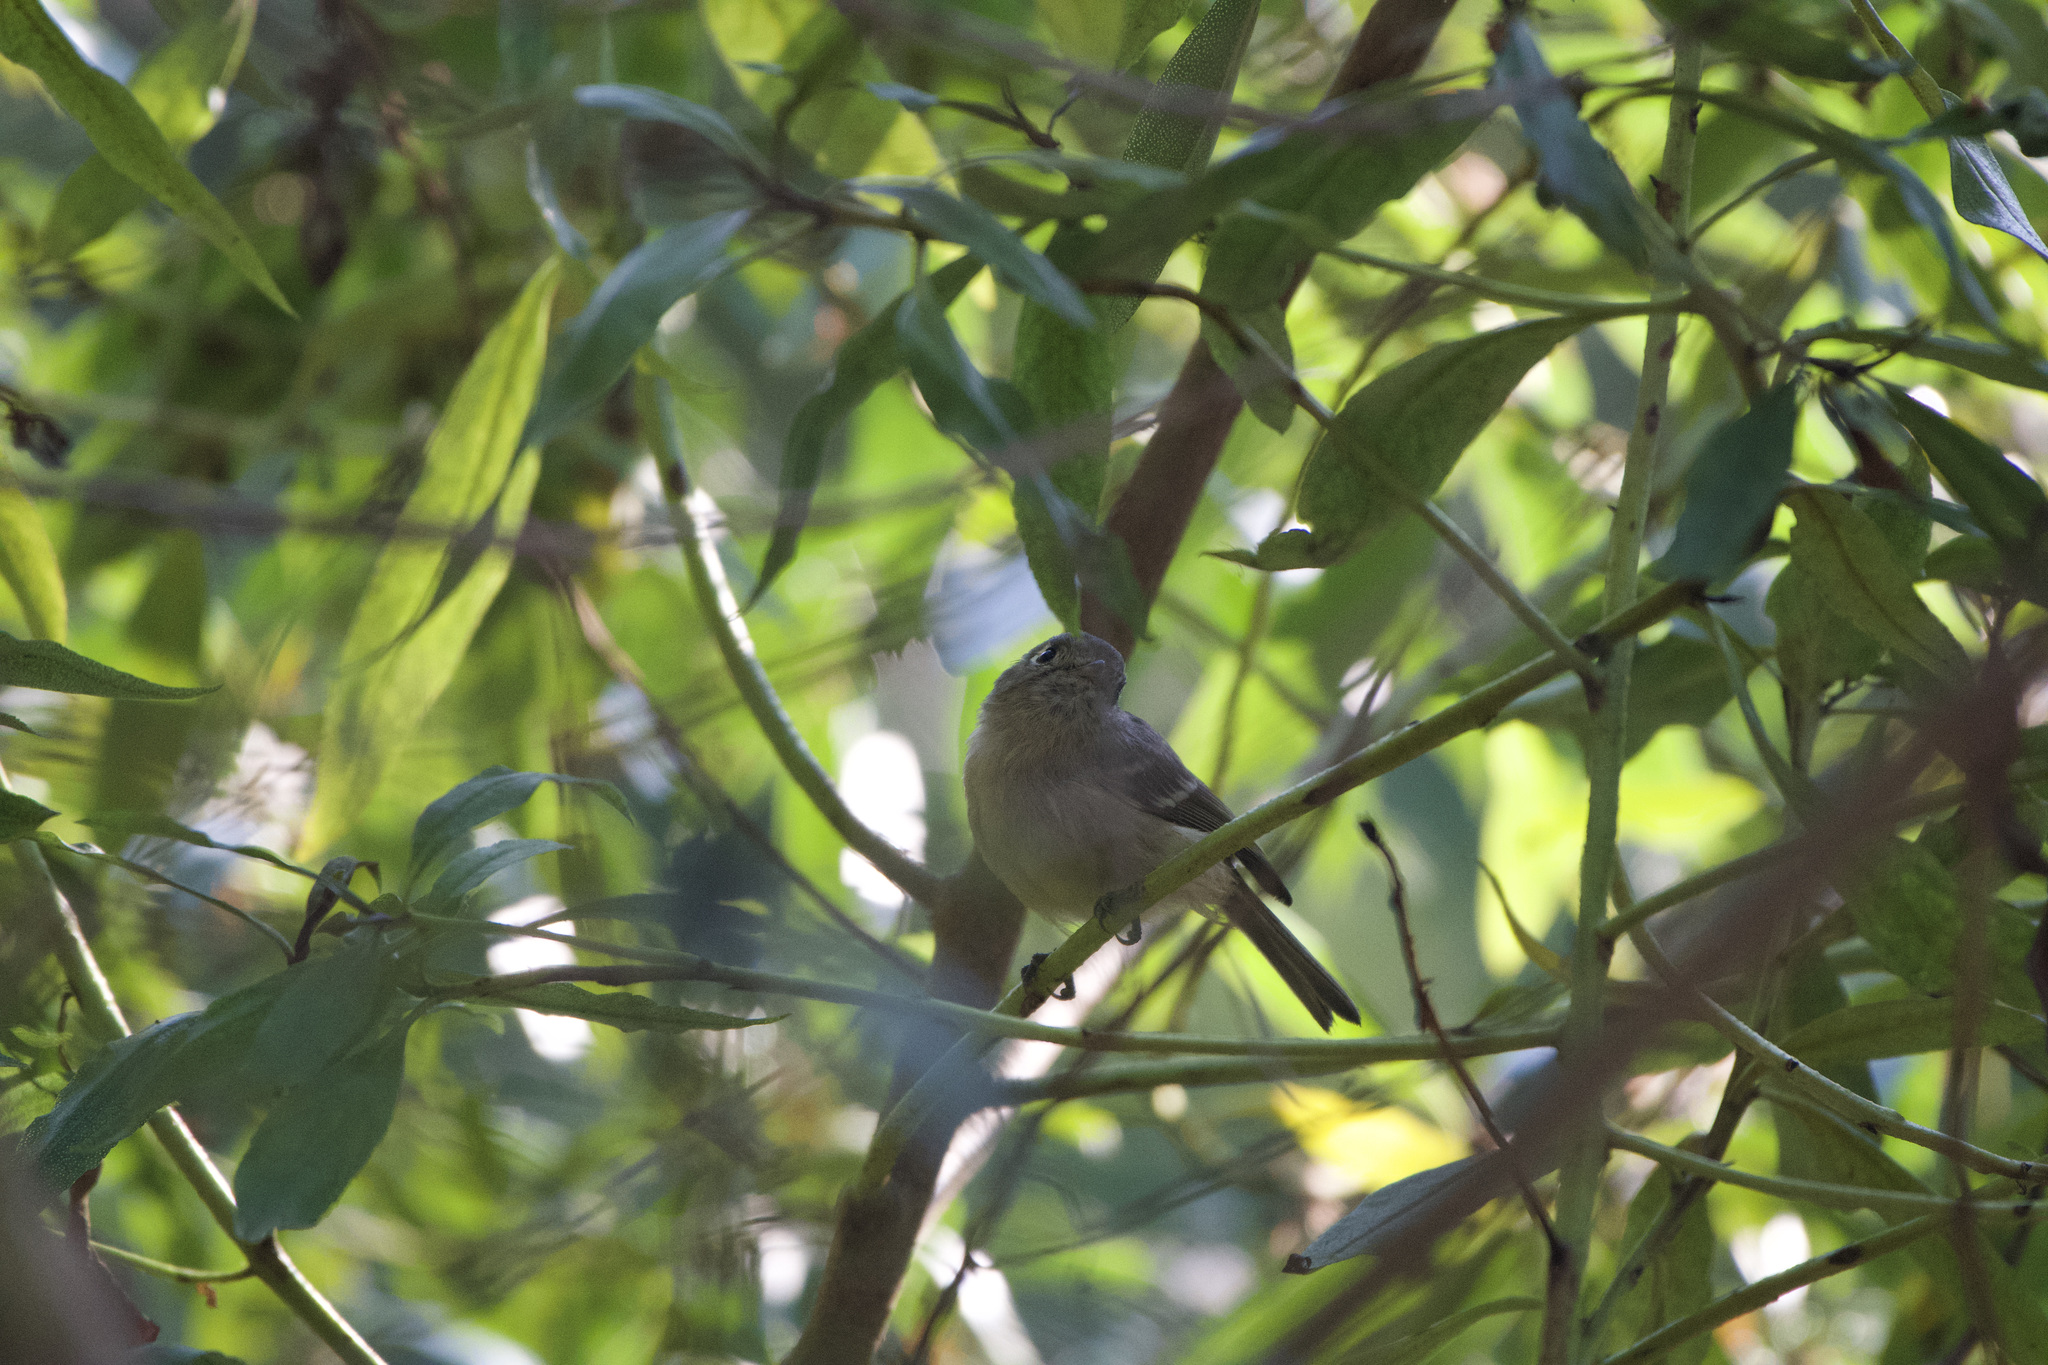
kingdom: Animalia
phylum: Chordata
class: Aves
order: Passeriformes
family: Vireonidae
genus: Vireo
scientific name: Vireo huttoni
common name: Hutton's vireo
